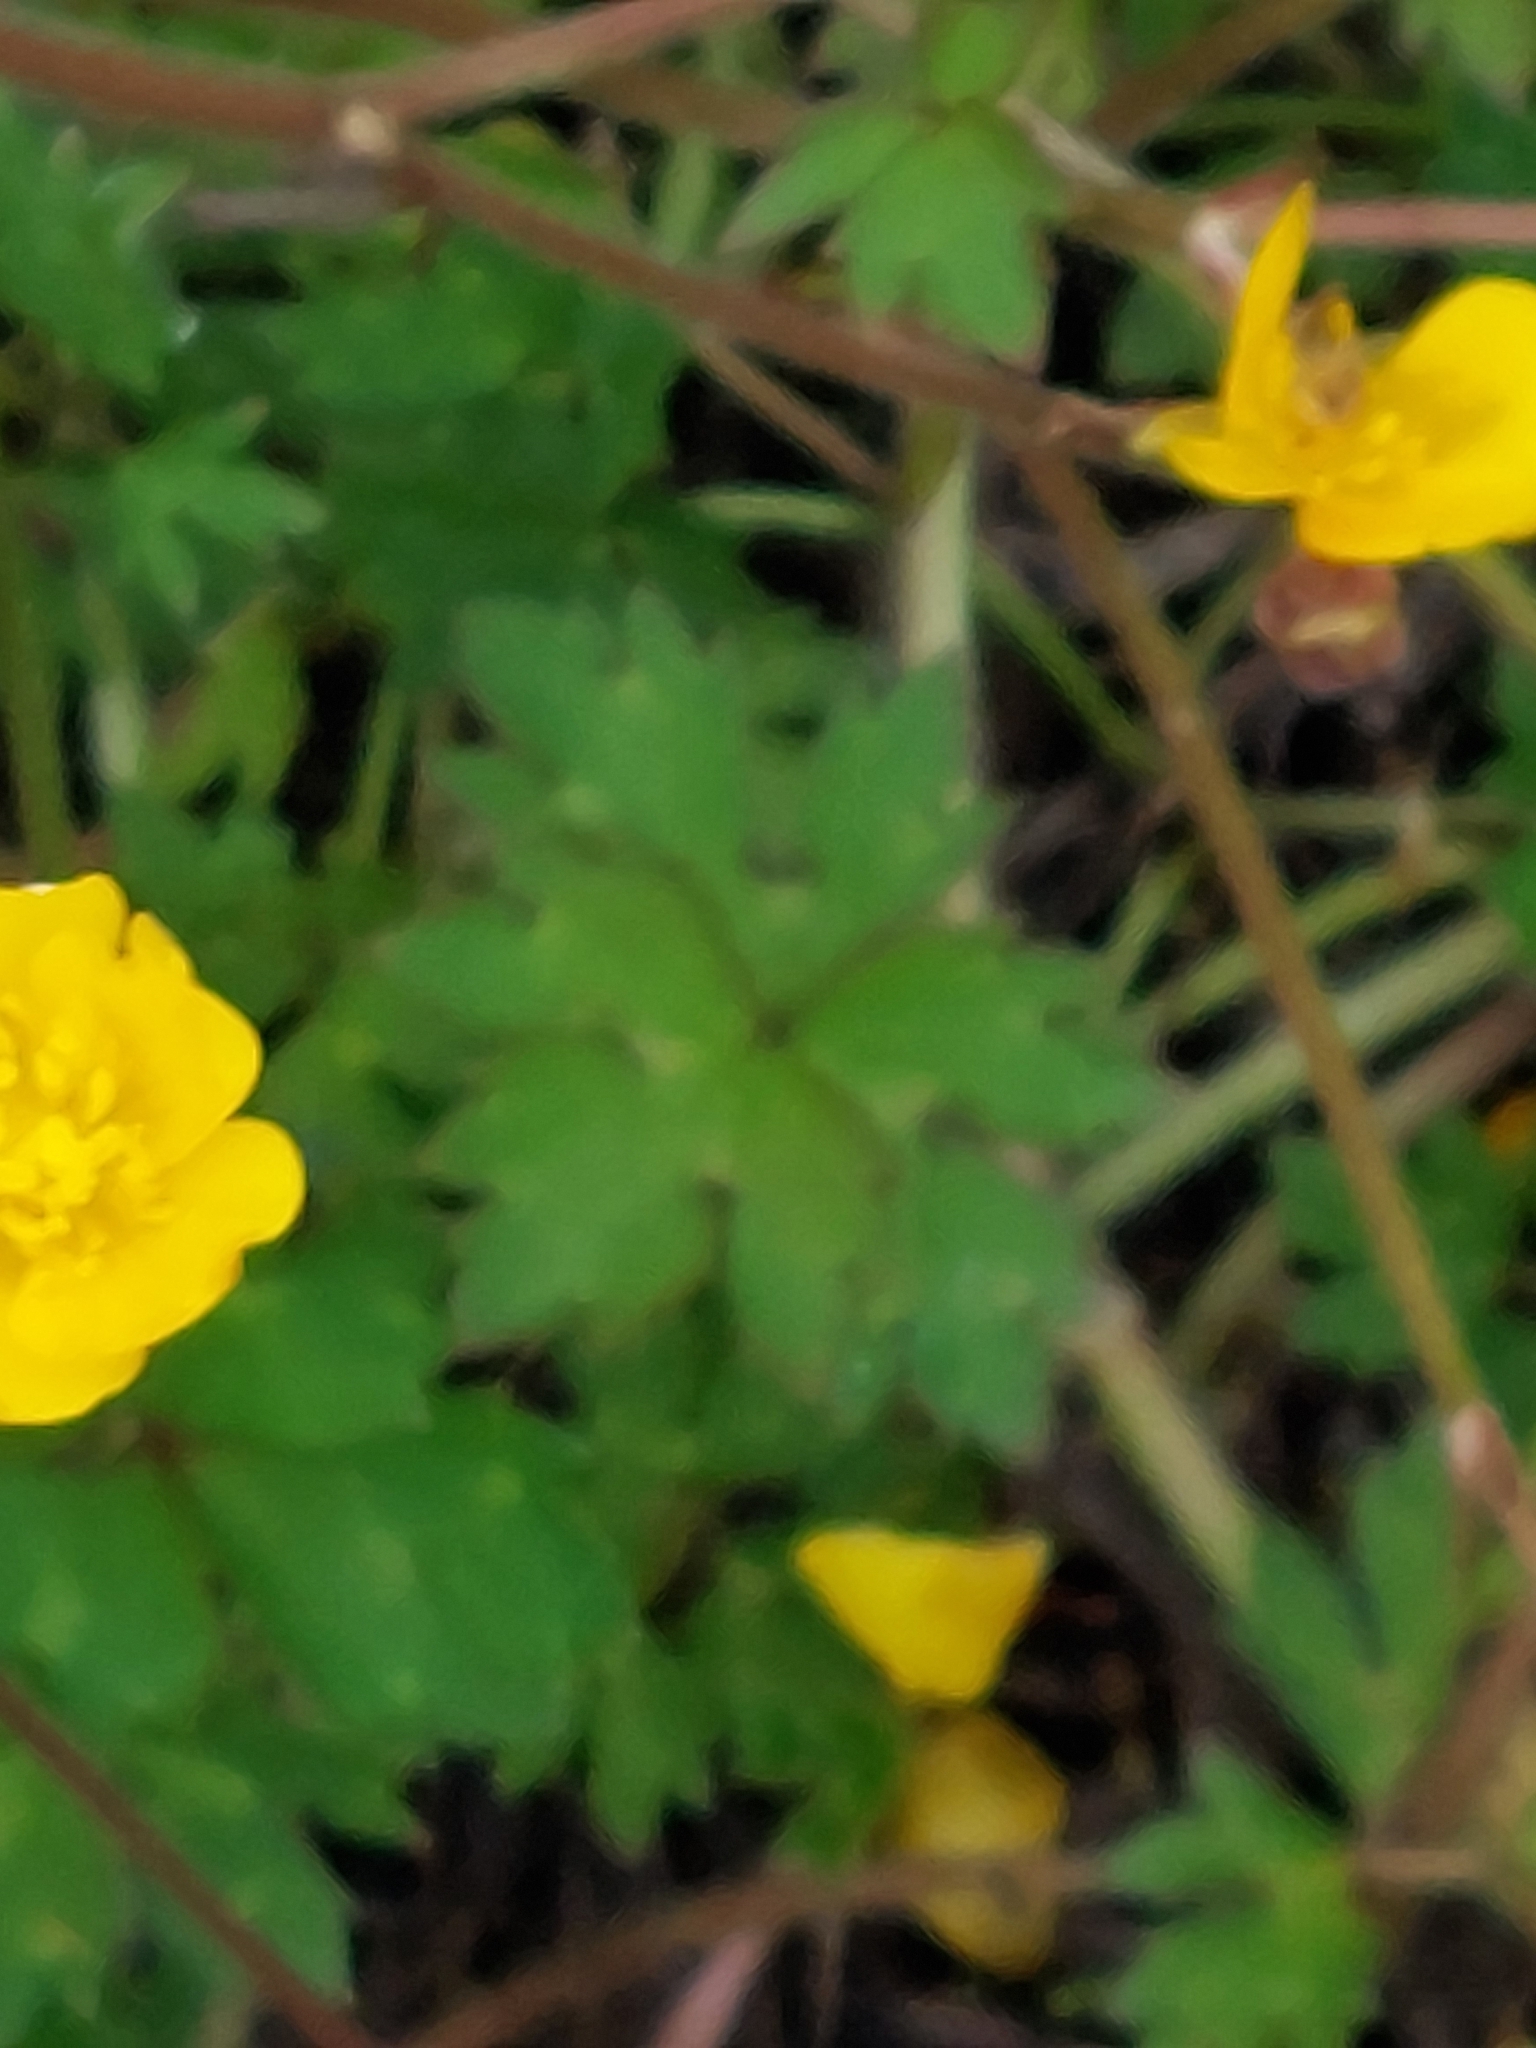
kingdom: Plantae
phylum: Tracheophyta
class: Magnoliopsida
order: Ranunculales
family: Ranunculaceae
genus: Ranunculus
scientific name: Ranunculus repens
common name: Creeping buttercup
